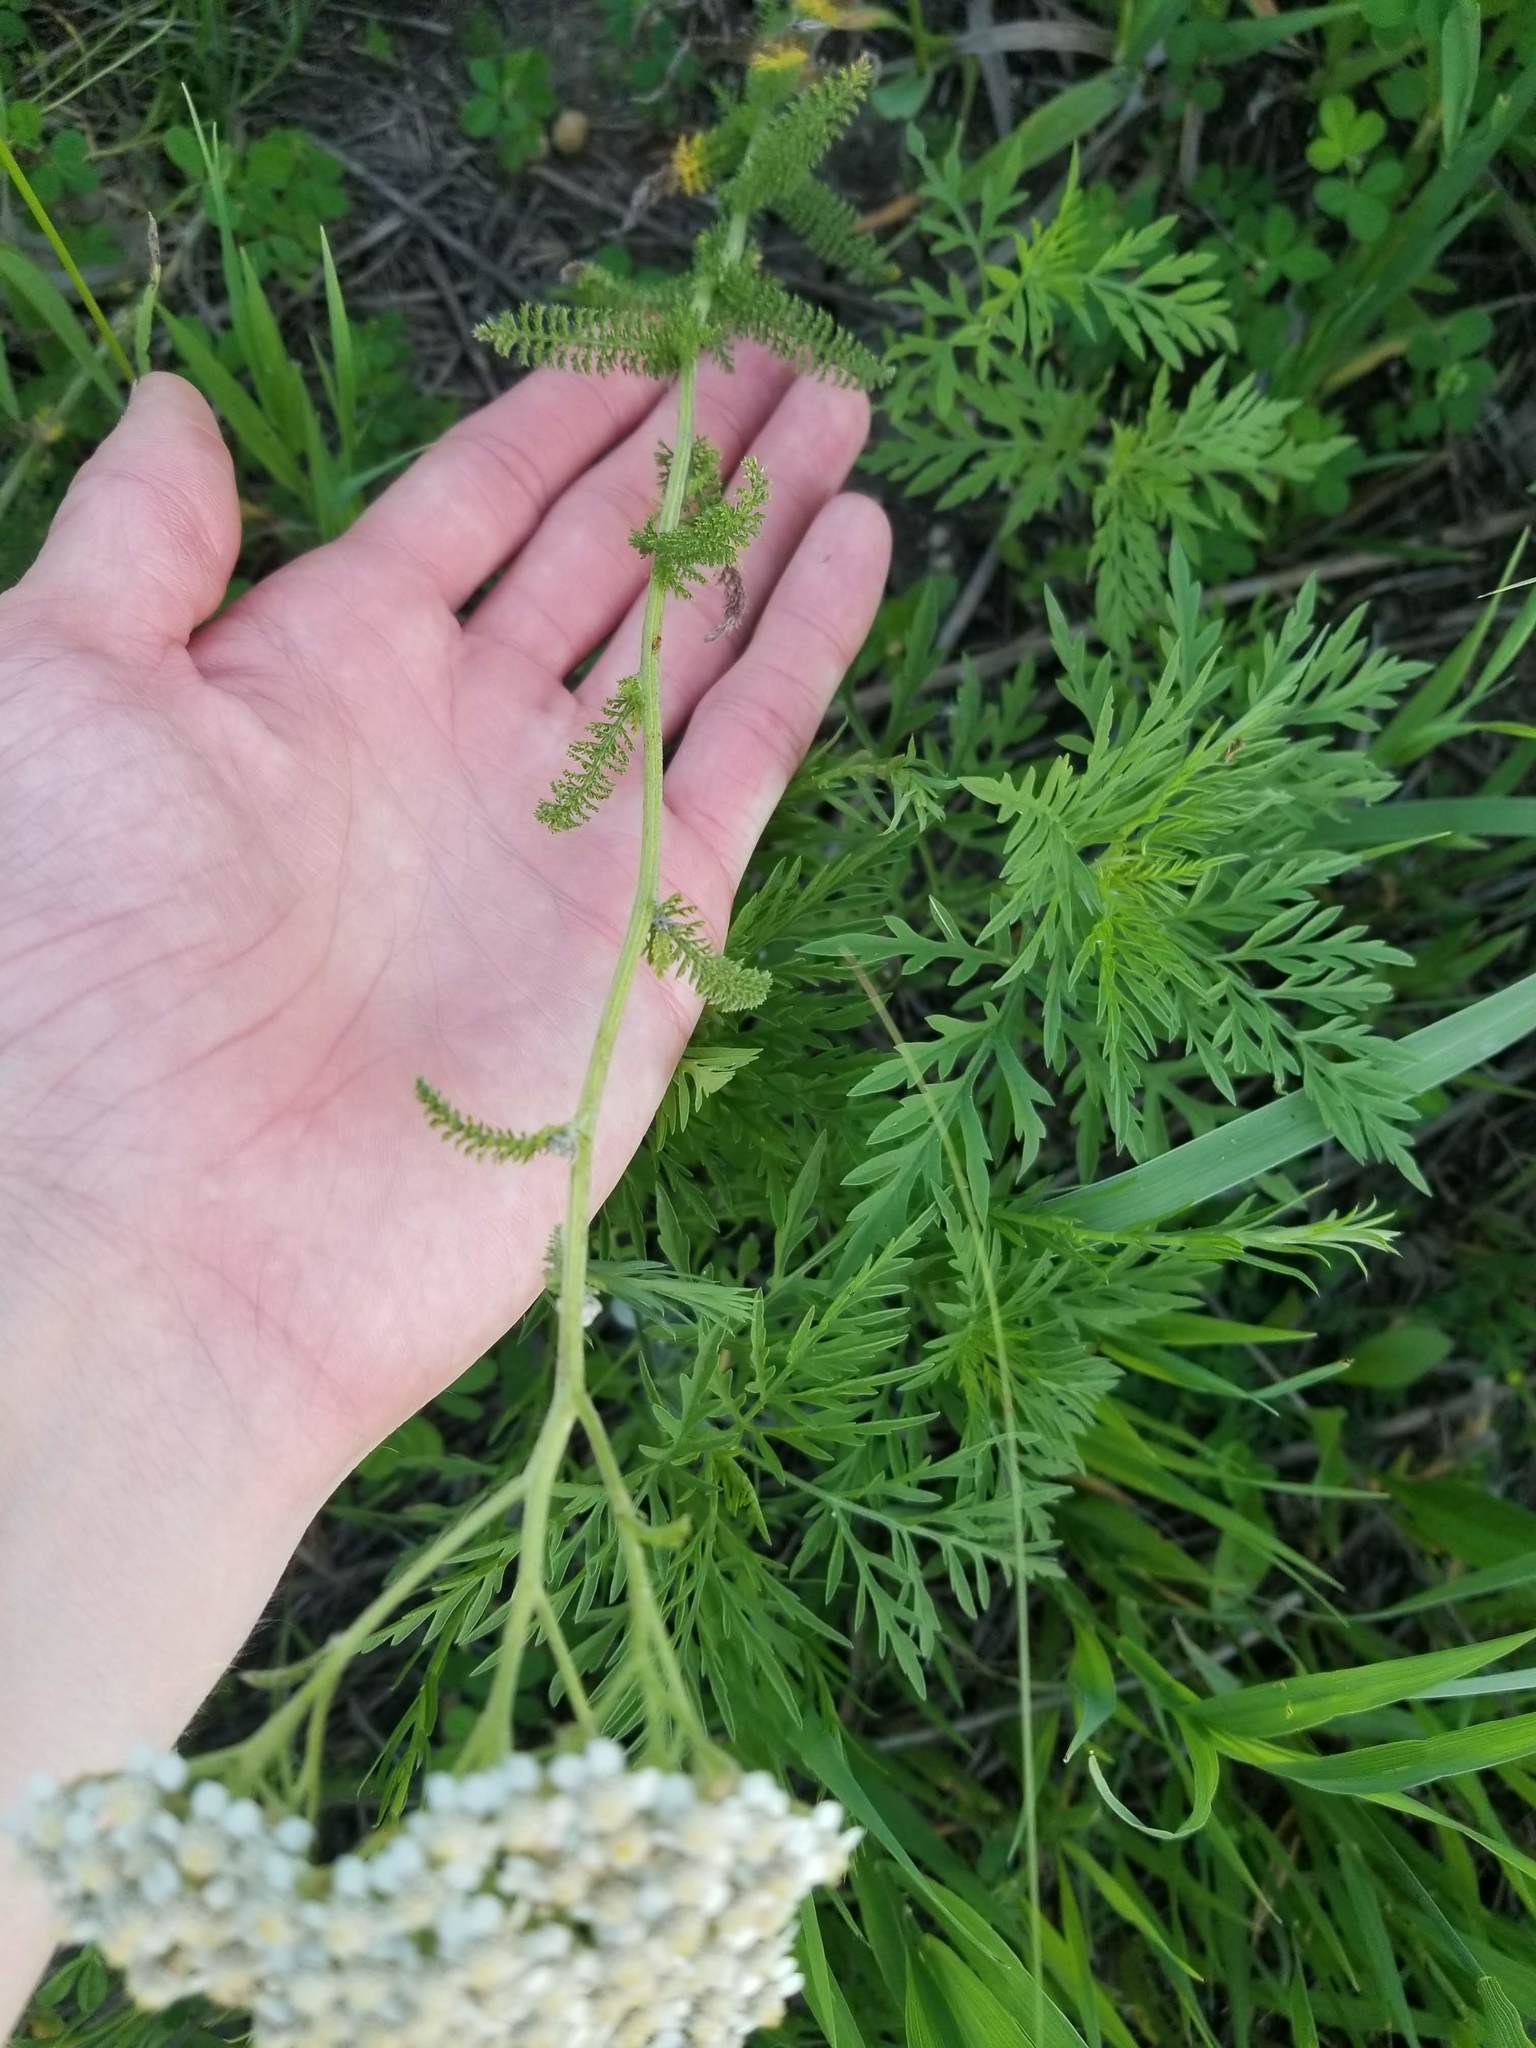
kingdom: Plantae
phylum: Tracheophyta
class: Magnoliopsida
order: Asterales
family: Asteraceae
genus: Achillea
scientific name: Achillea millefolium
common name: Yarrow
